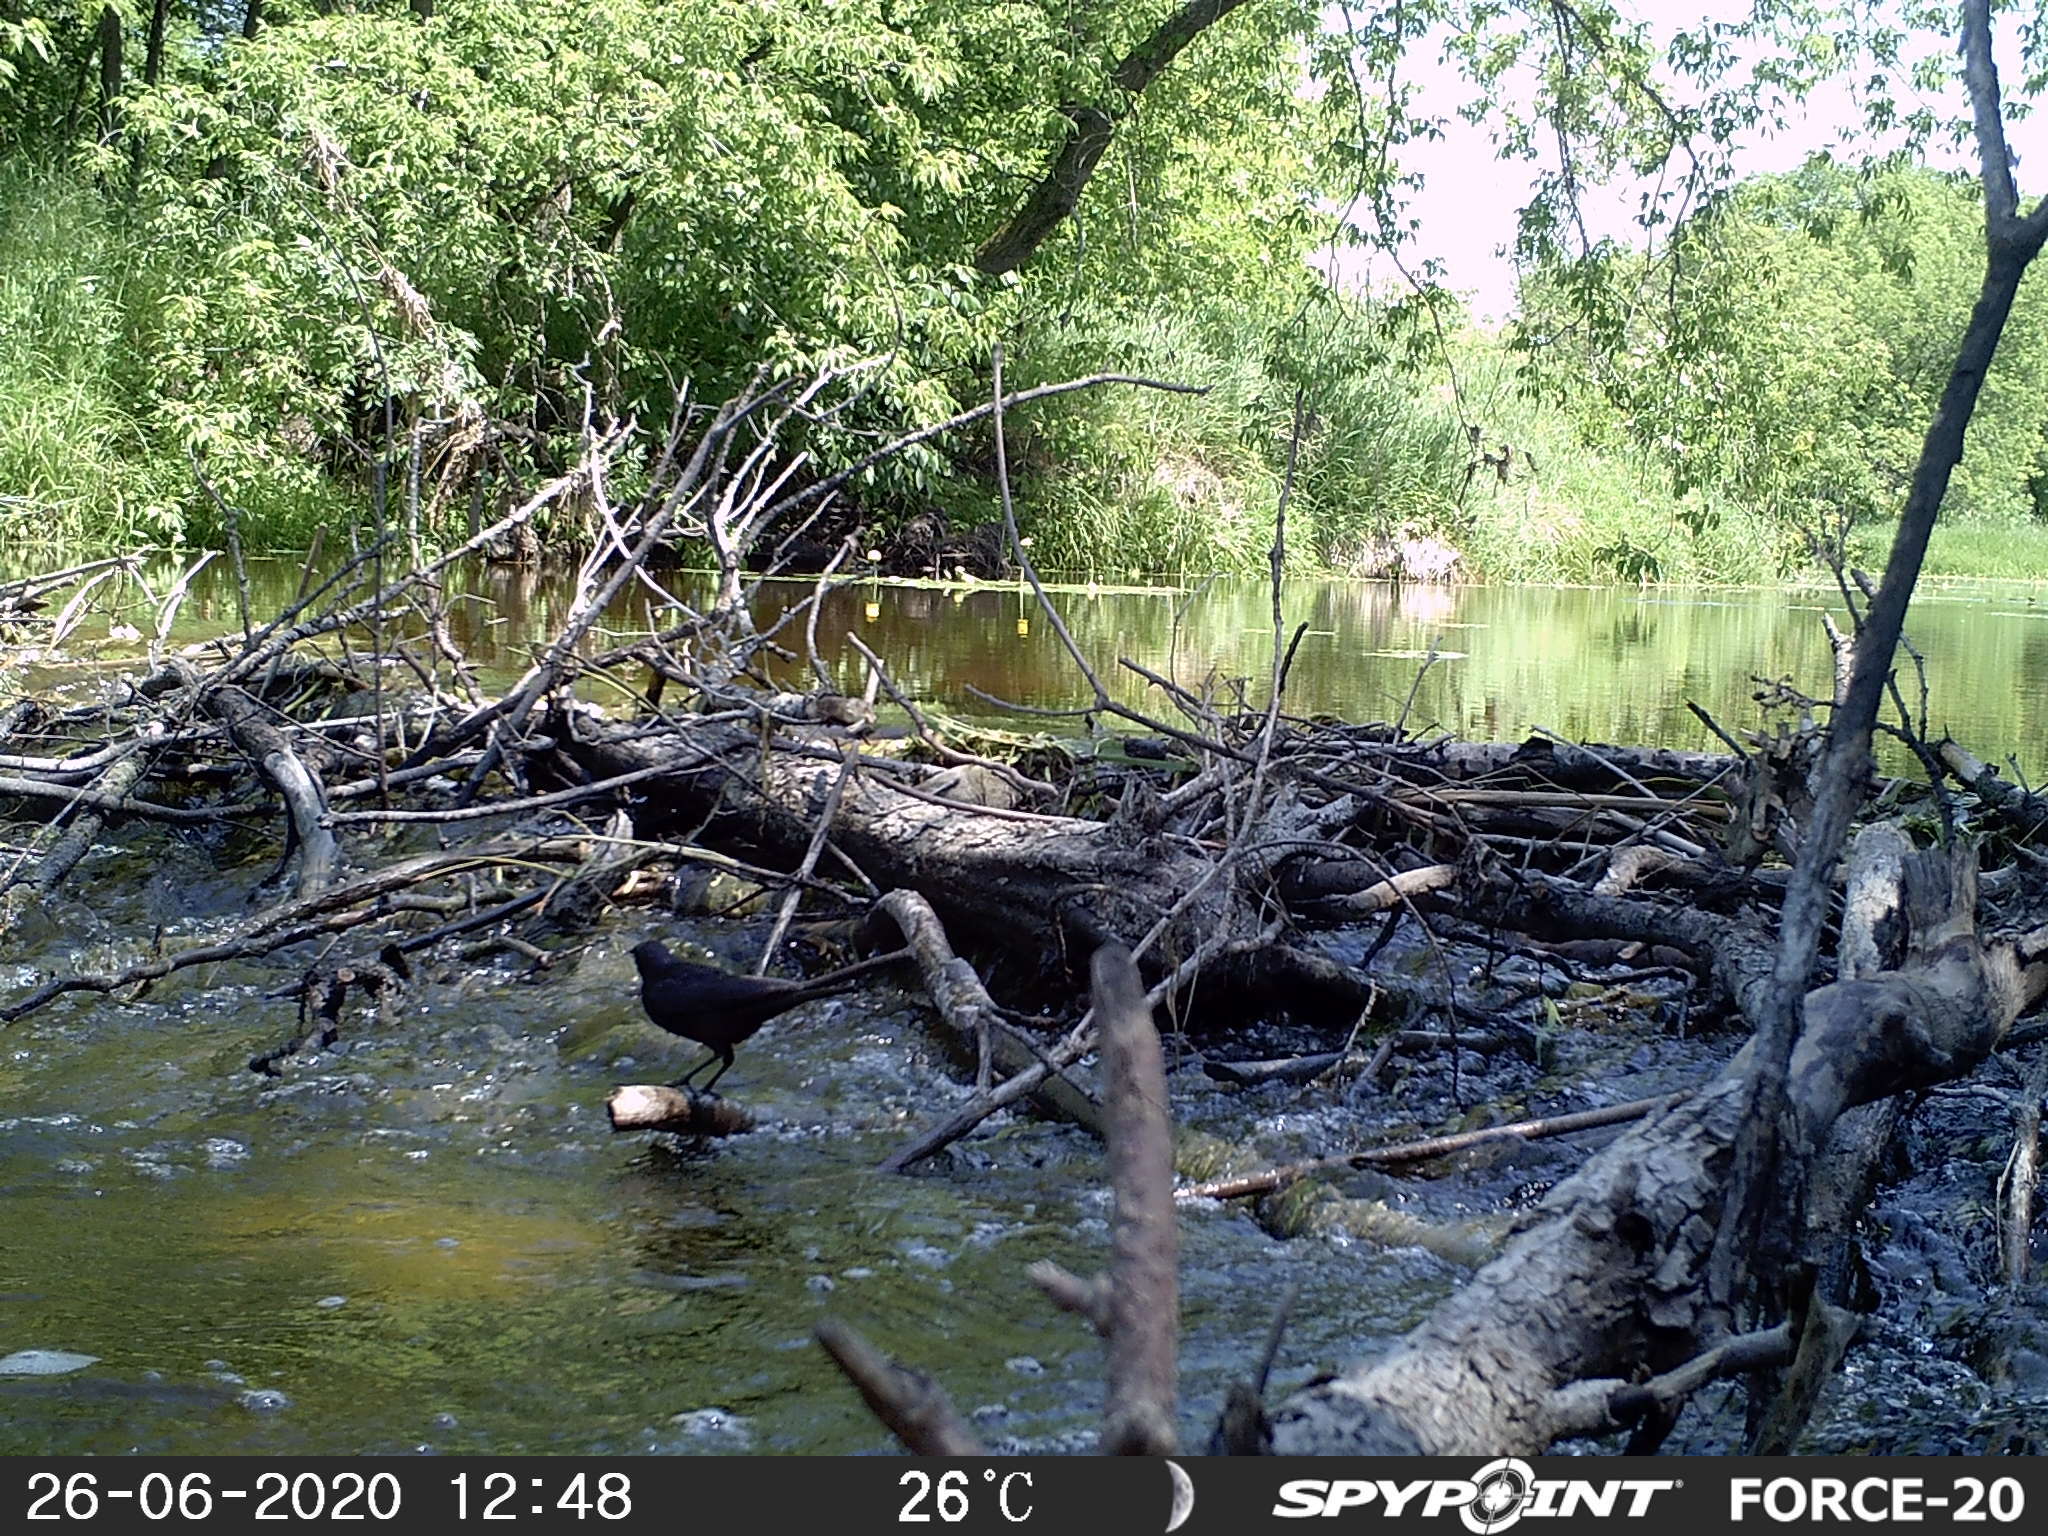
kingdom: Animalia
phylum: Chordata
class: Aves
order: Passeriformes
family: Icteridae
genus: Quiscalus
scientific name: Quiscalus quiscula
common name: Common grackle
